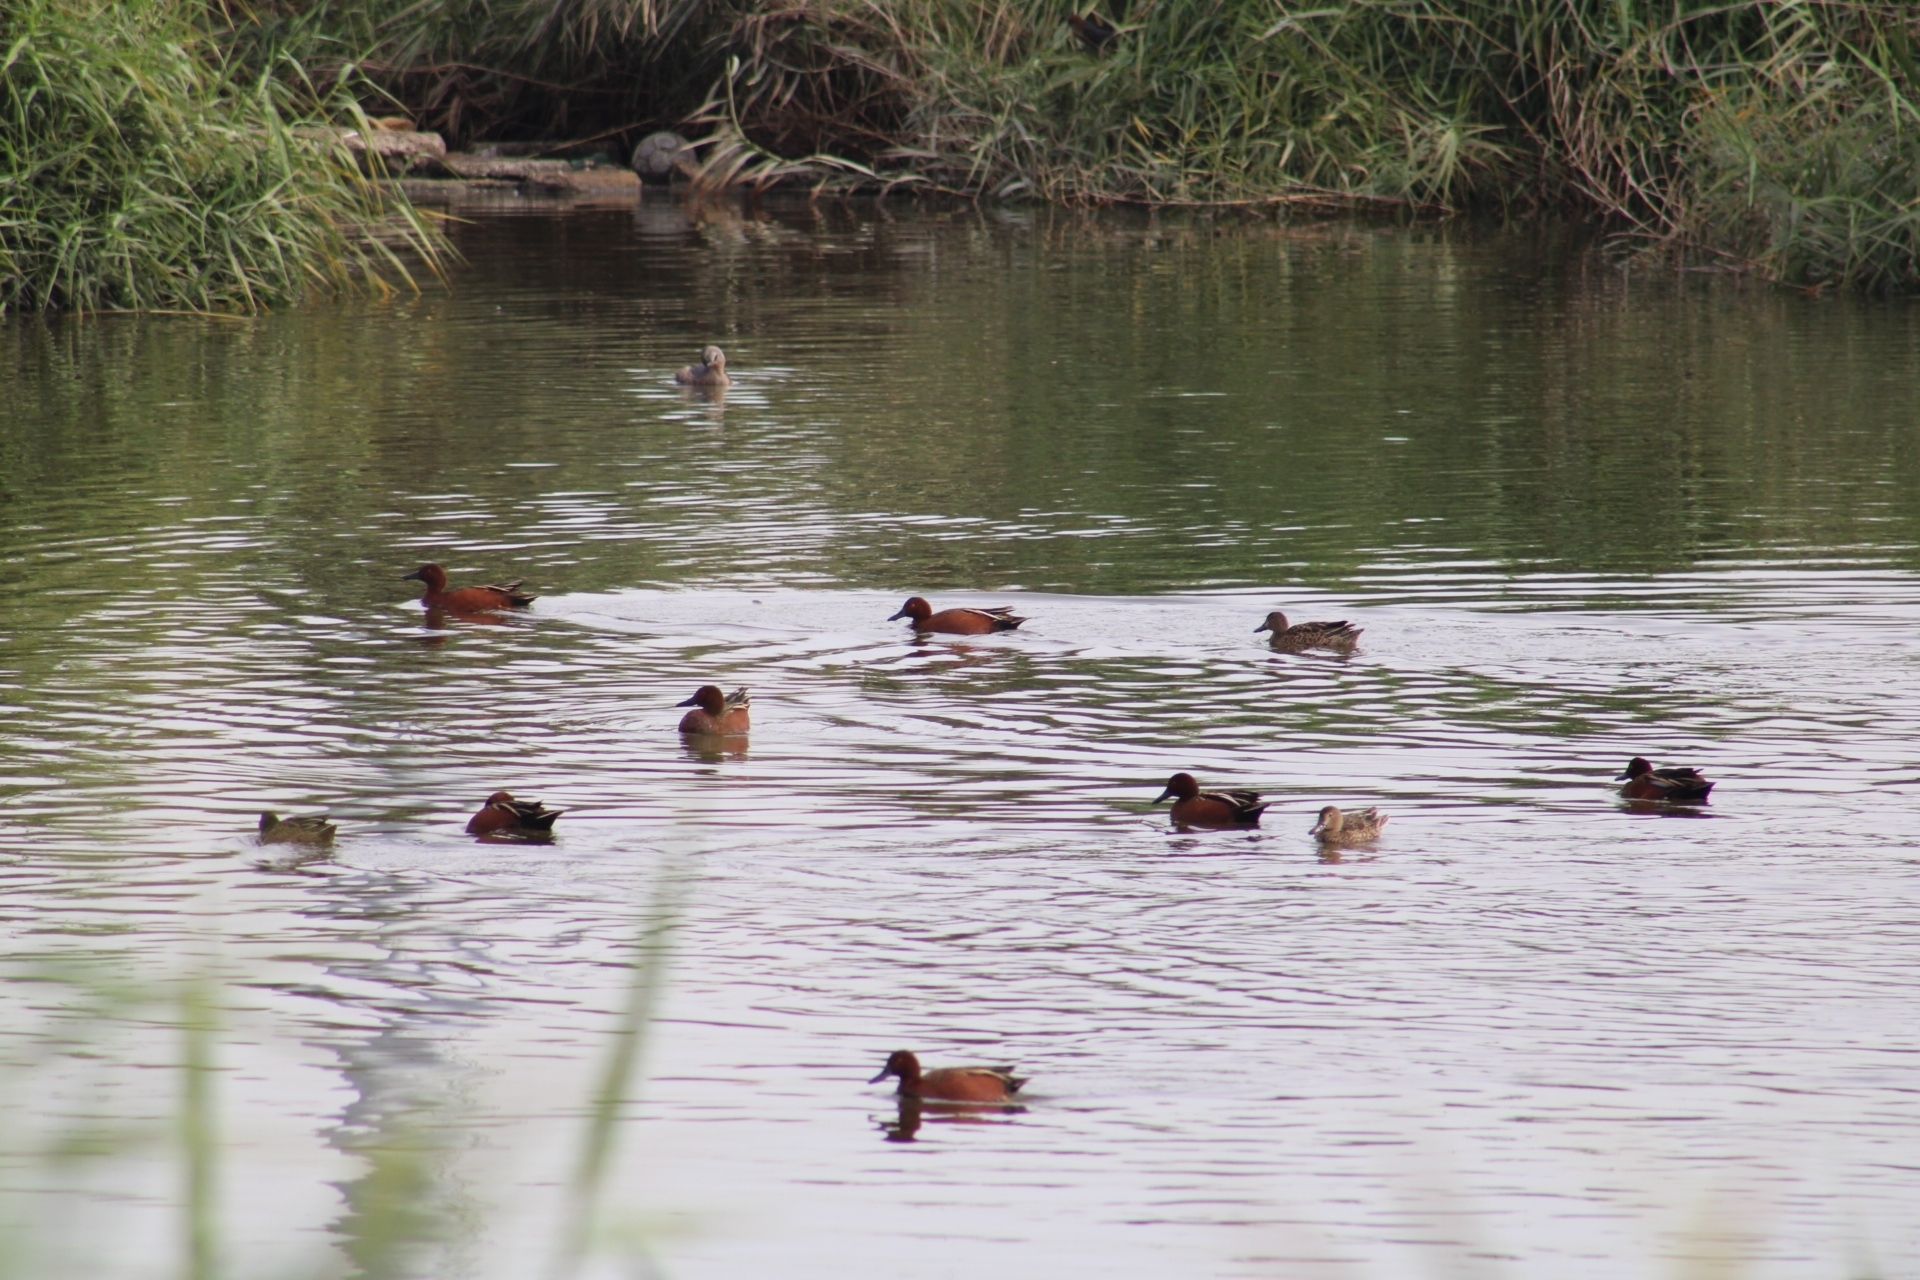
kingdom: Animalia
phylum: Chordata
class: Aves
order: Anseriformes
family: Anatidae
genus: Spatula
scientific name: Spatula cyanoptera
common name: Cinnamon teal
